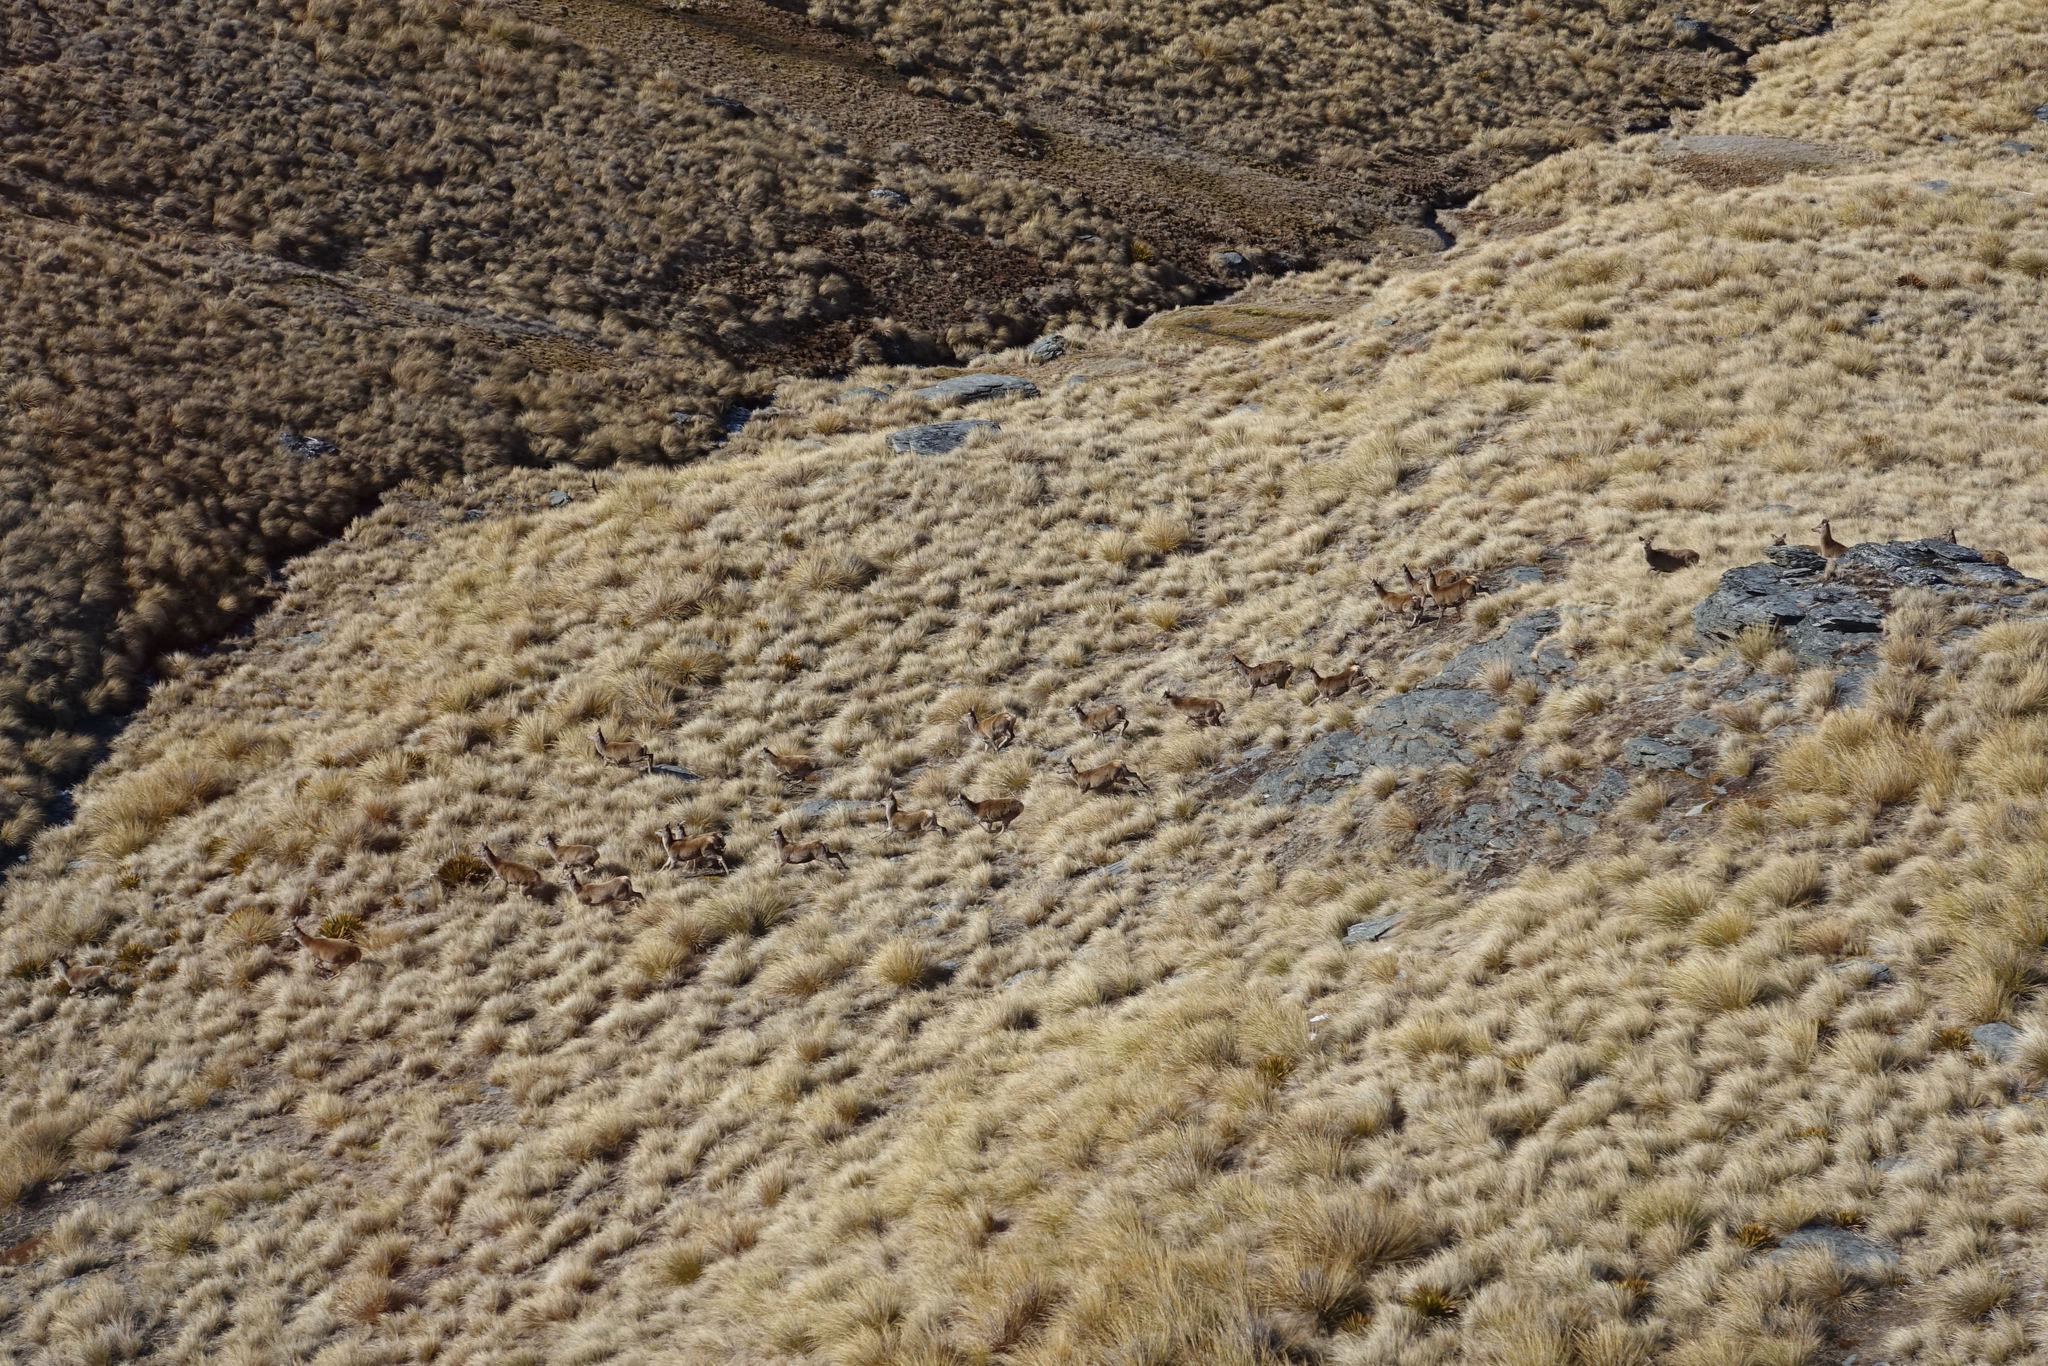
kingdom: Animalia
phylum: Chordata
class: Mammalia
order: Artiodactyla
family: Cervidae
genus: Cervus
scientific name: Cervus elaphus
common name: Red deer
